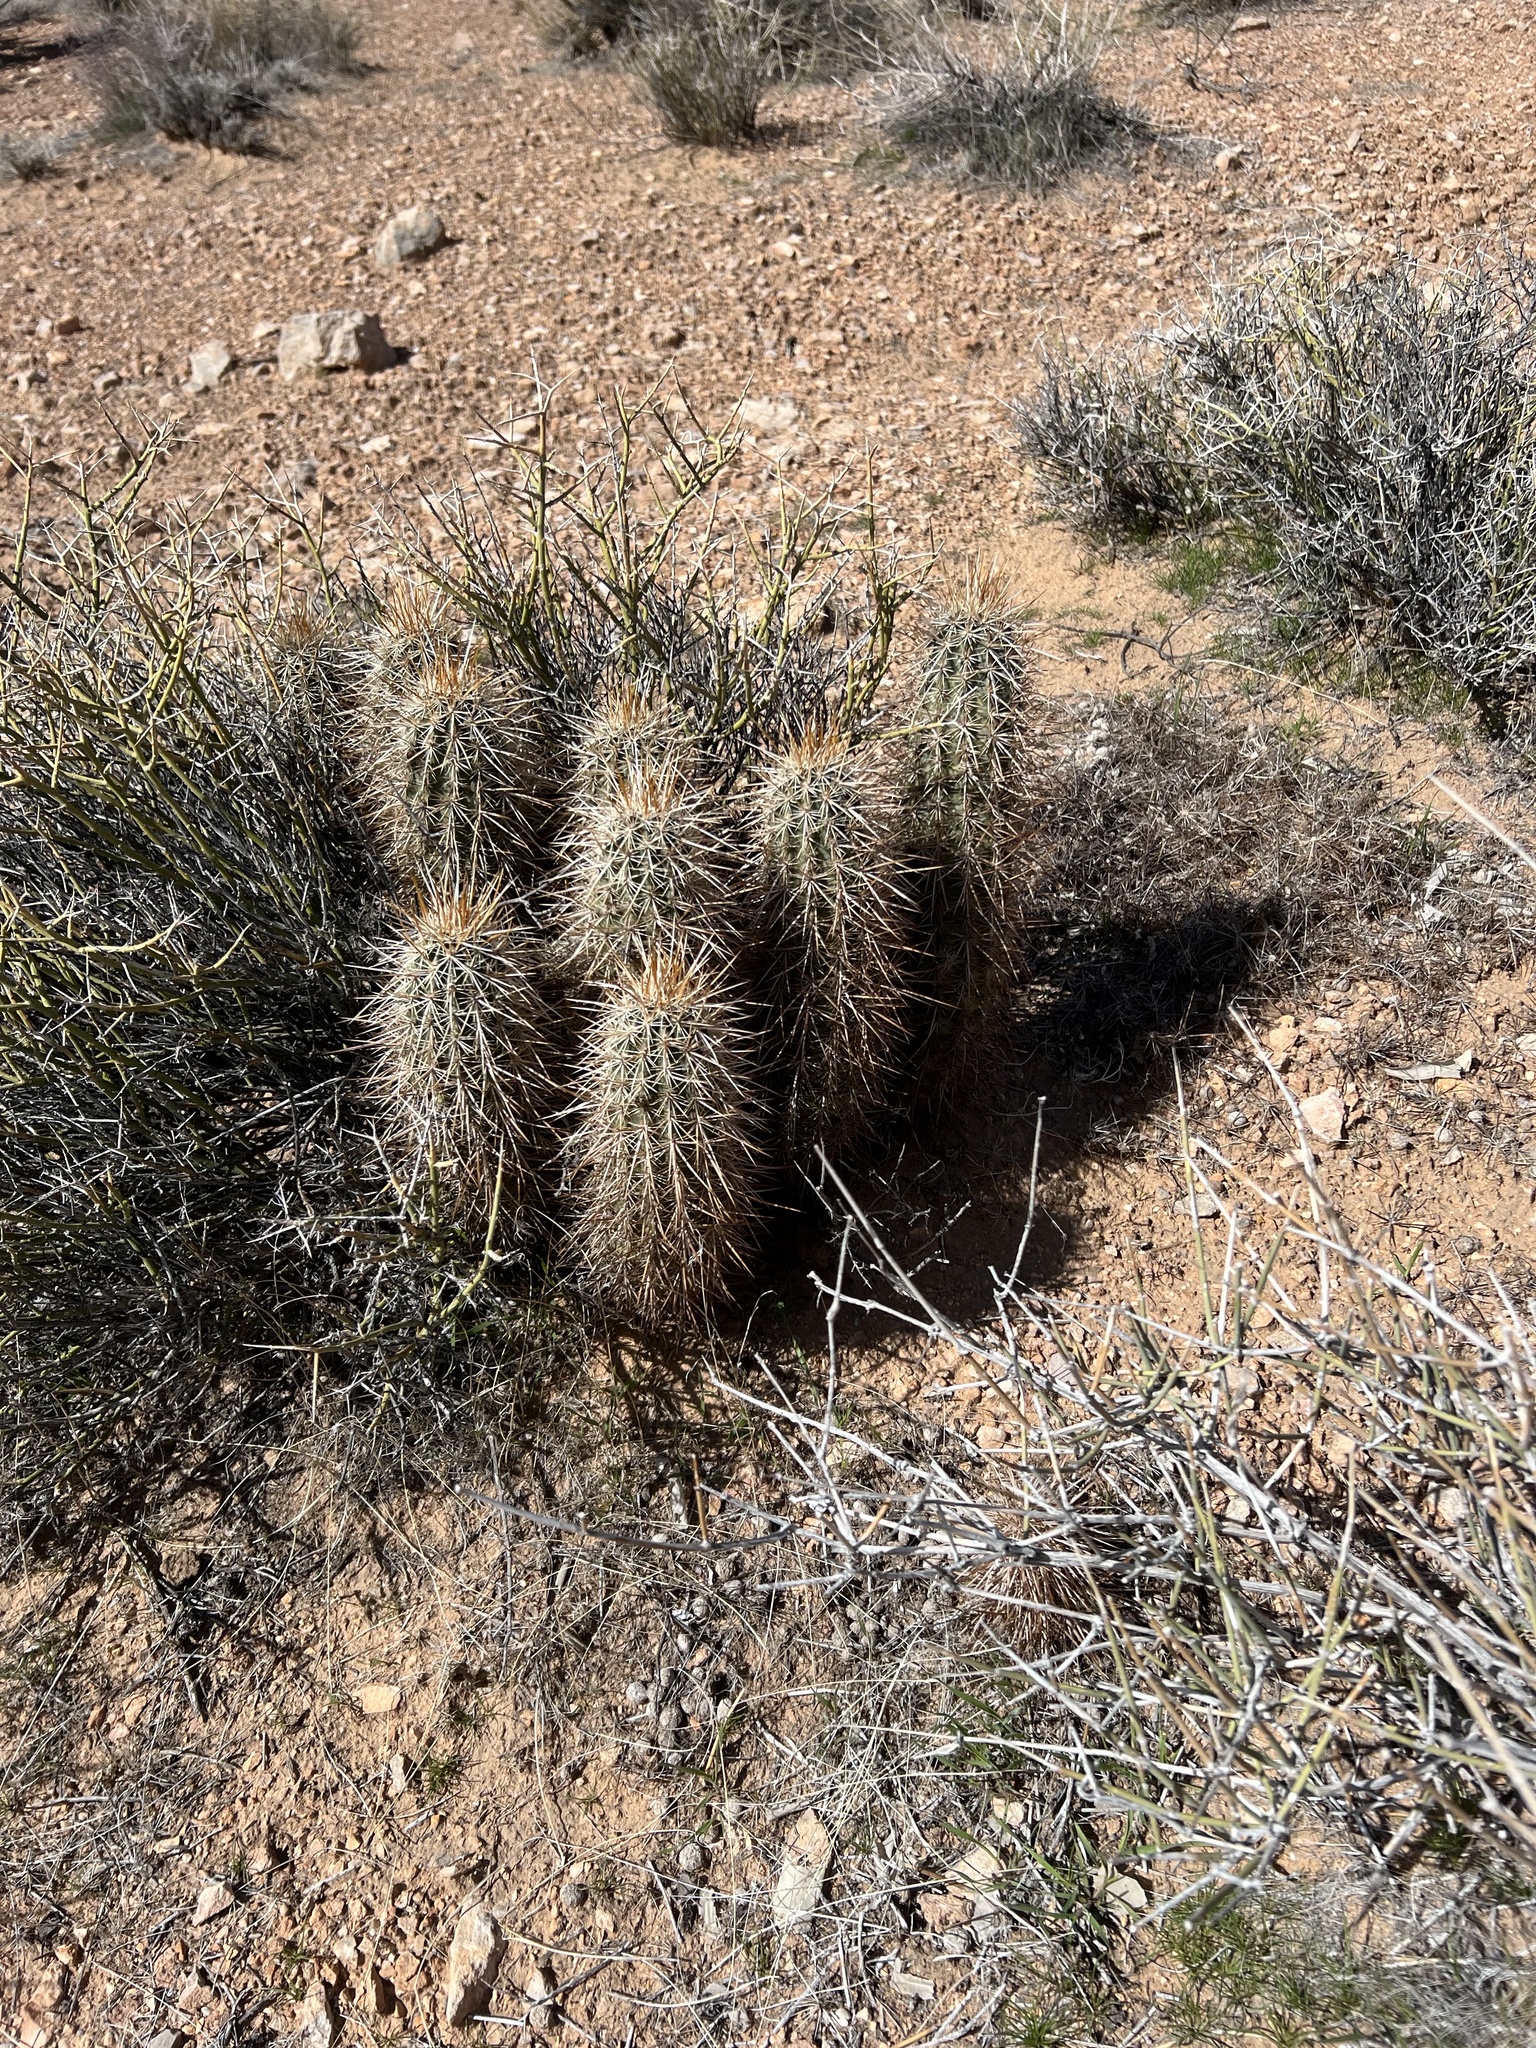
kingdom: Plantae
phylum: Tracheophyta
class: Magnoliopsida
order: Caryophyllales
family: Cactaceae
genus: Echinocereus
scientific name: Echinocereus engelmannii
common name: Engelmann's hedgehog cactus
